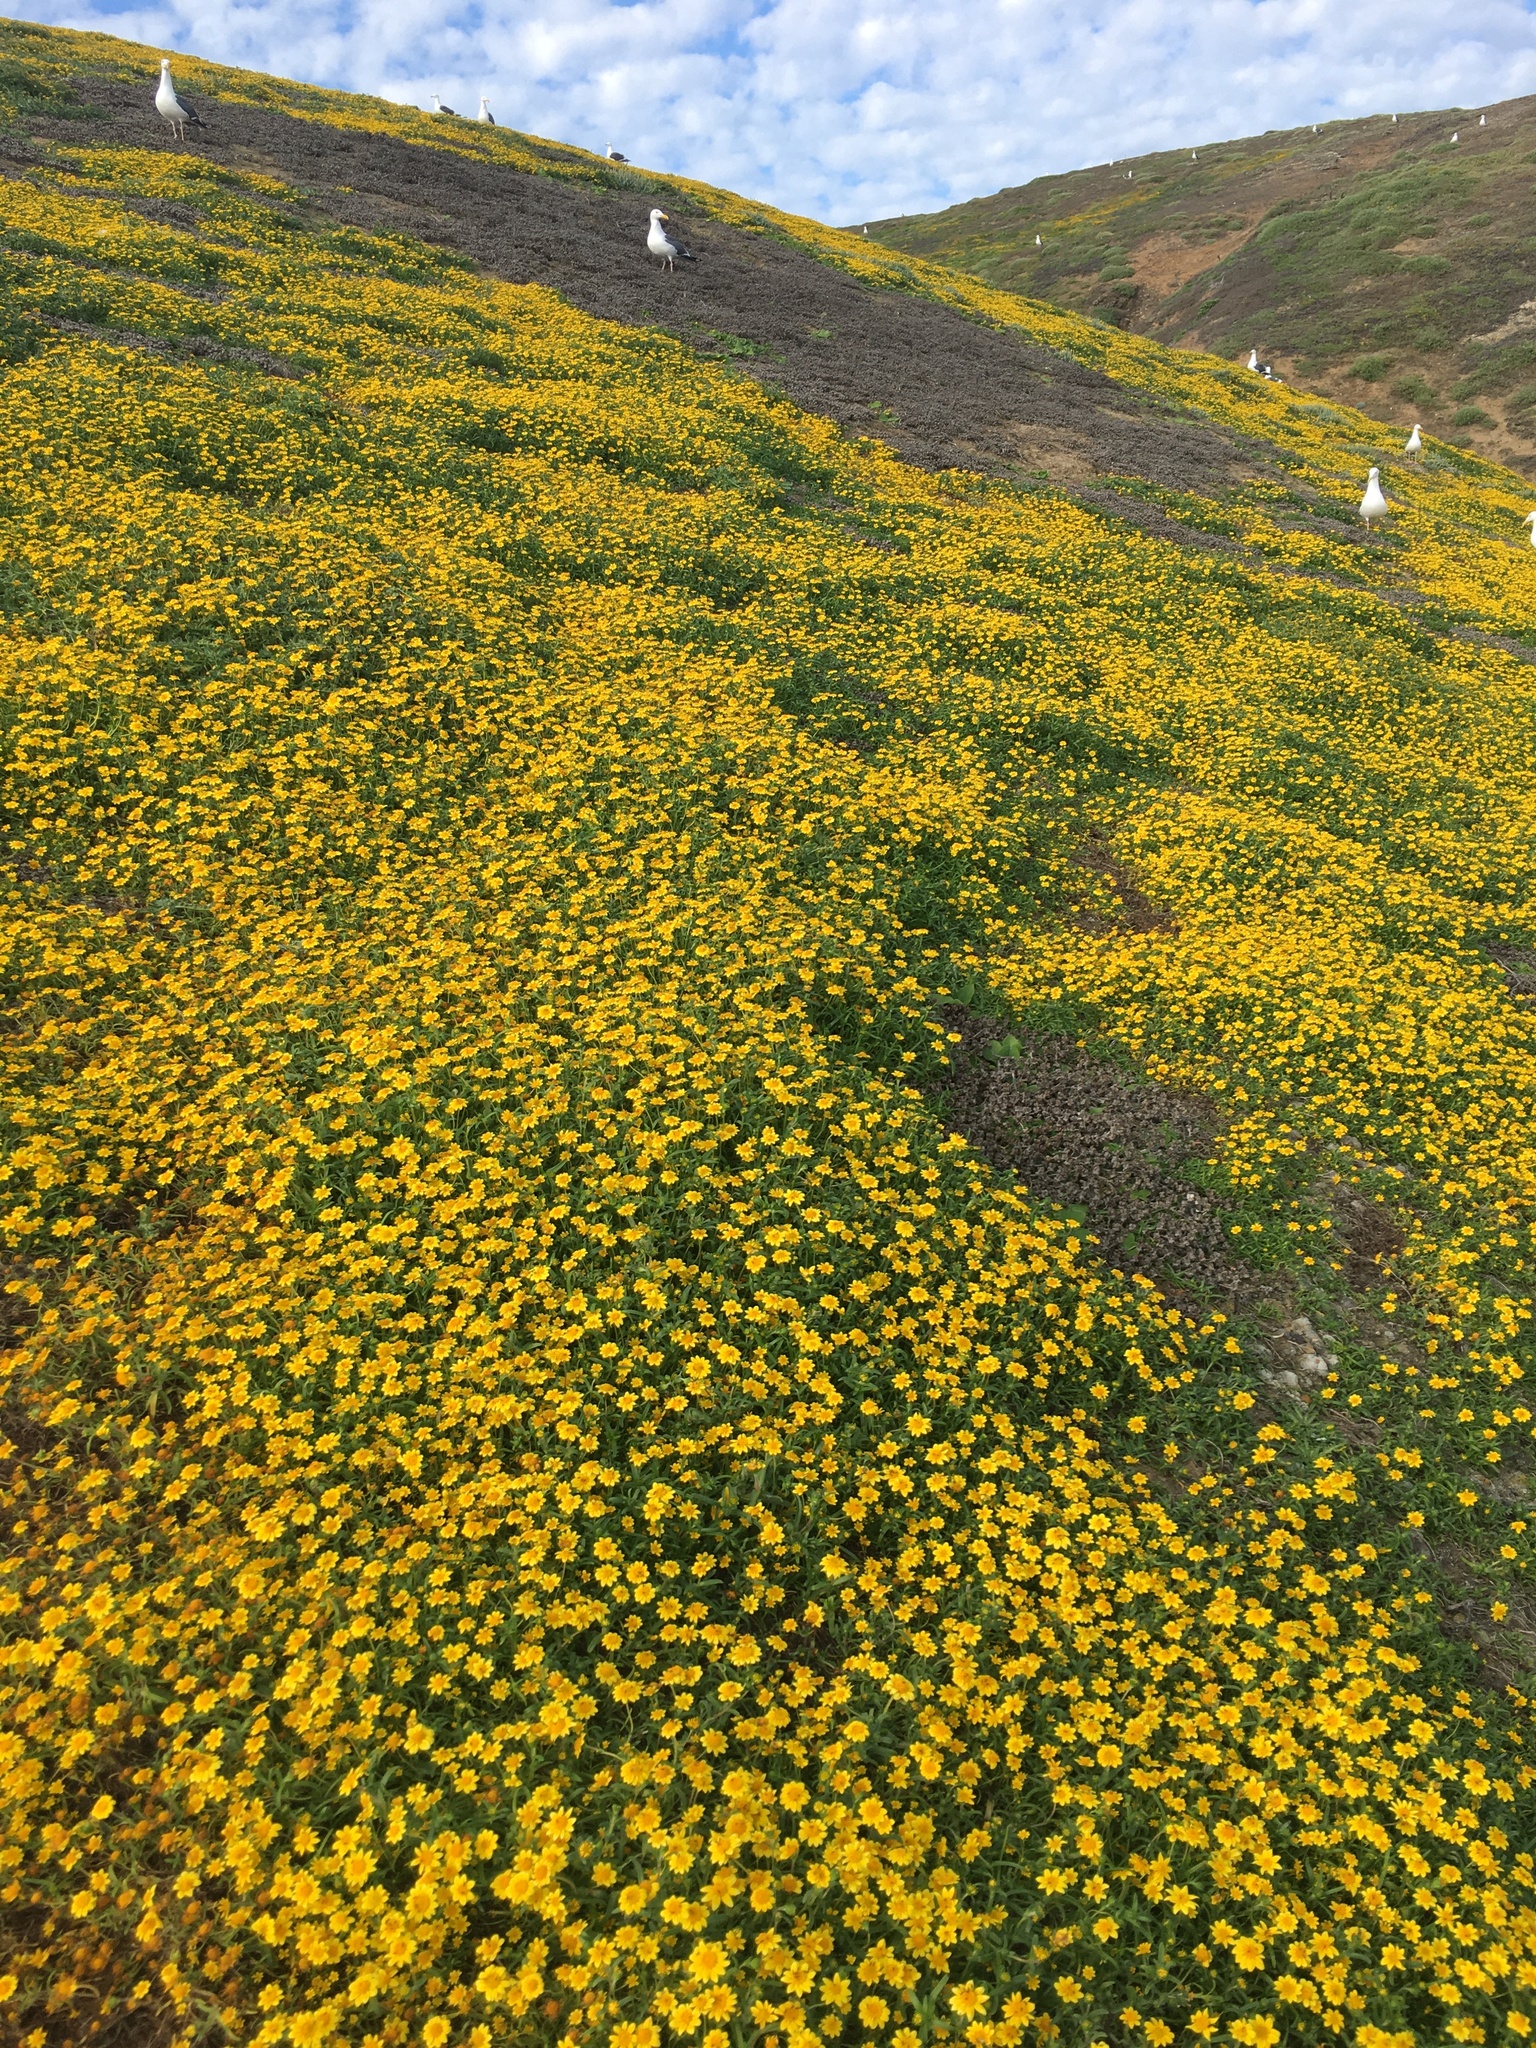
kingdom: Plantae
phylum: Tracheophyta
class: Magnoliopsida
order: Asterales
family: Asteraceae
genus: Lasthenia
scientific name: Lasthenia gracilis
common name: Common goldfields
